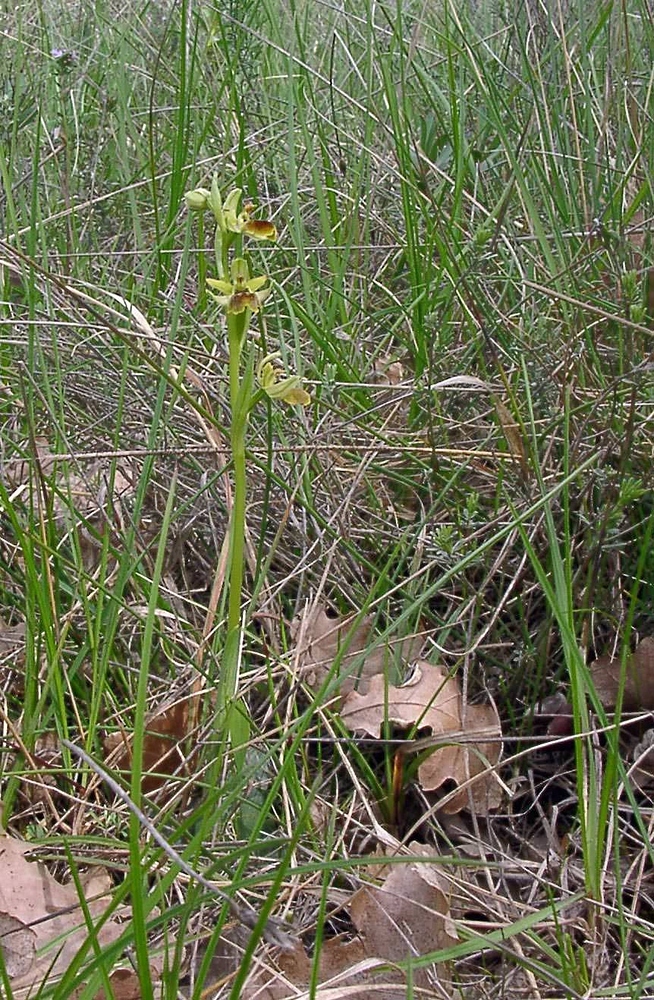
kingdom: Plantae
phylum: Tracheophyta
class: Liliopsida
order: Asparagales
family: Orchidaceae
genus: Ophrys
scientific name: Ophrys sphegodes
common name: Early spider-orchid
